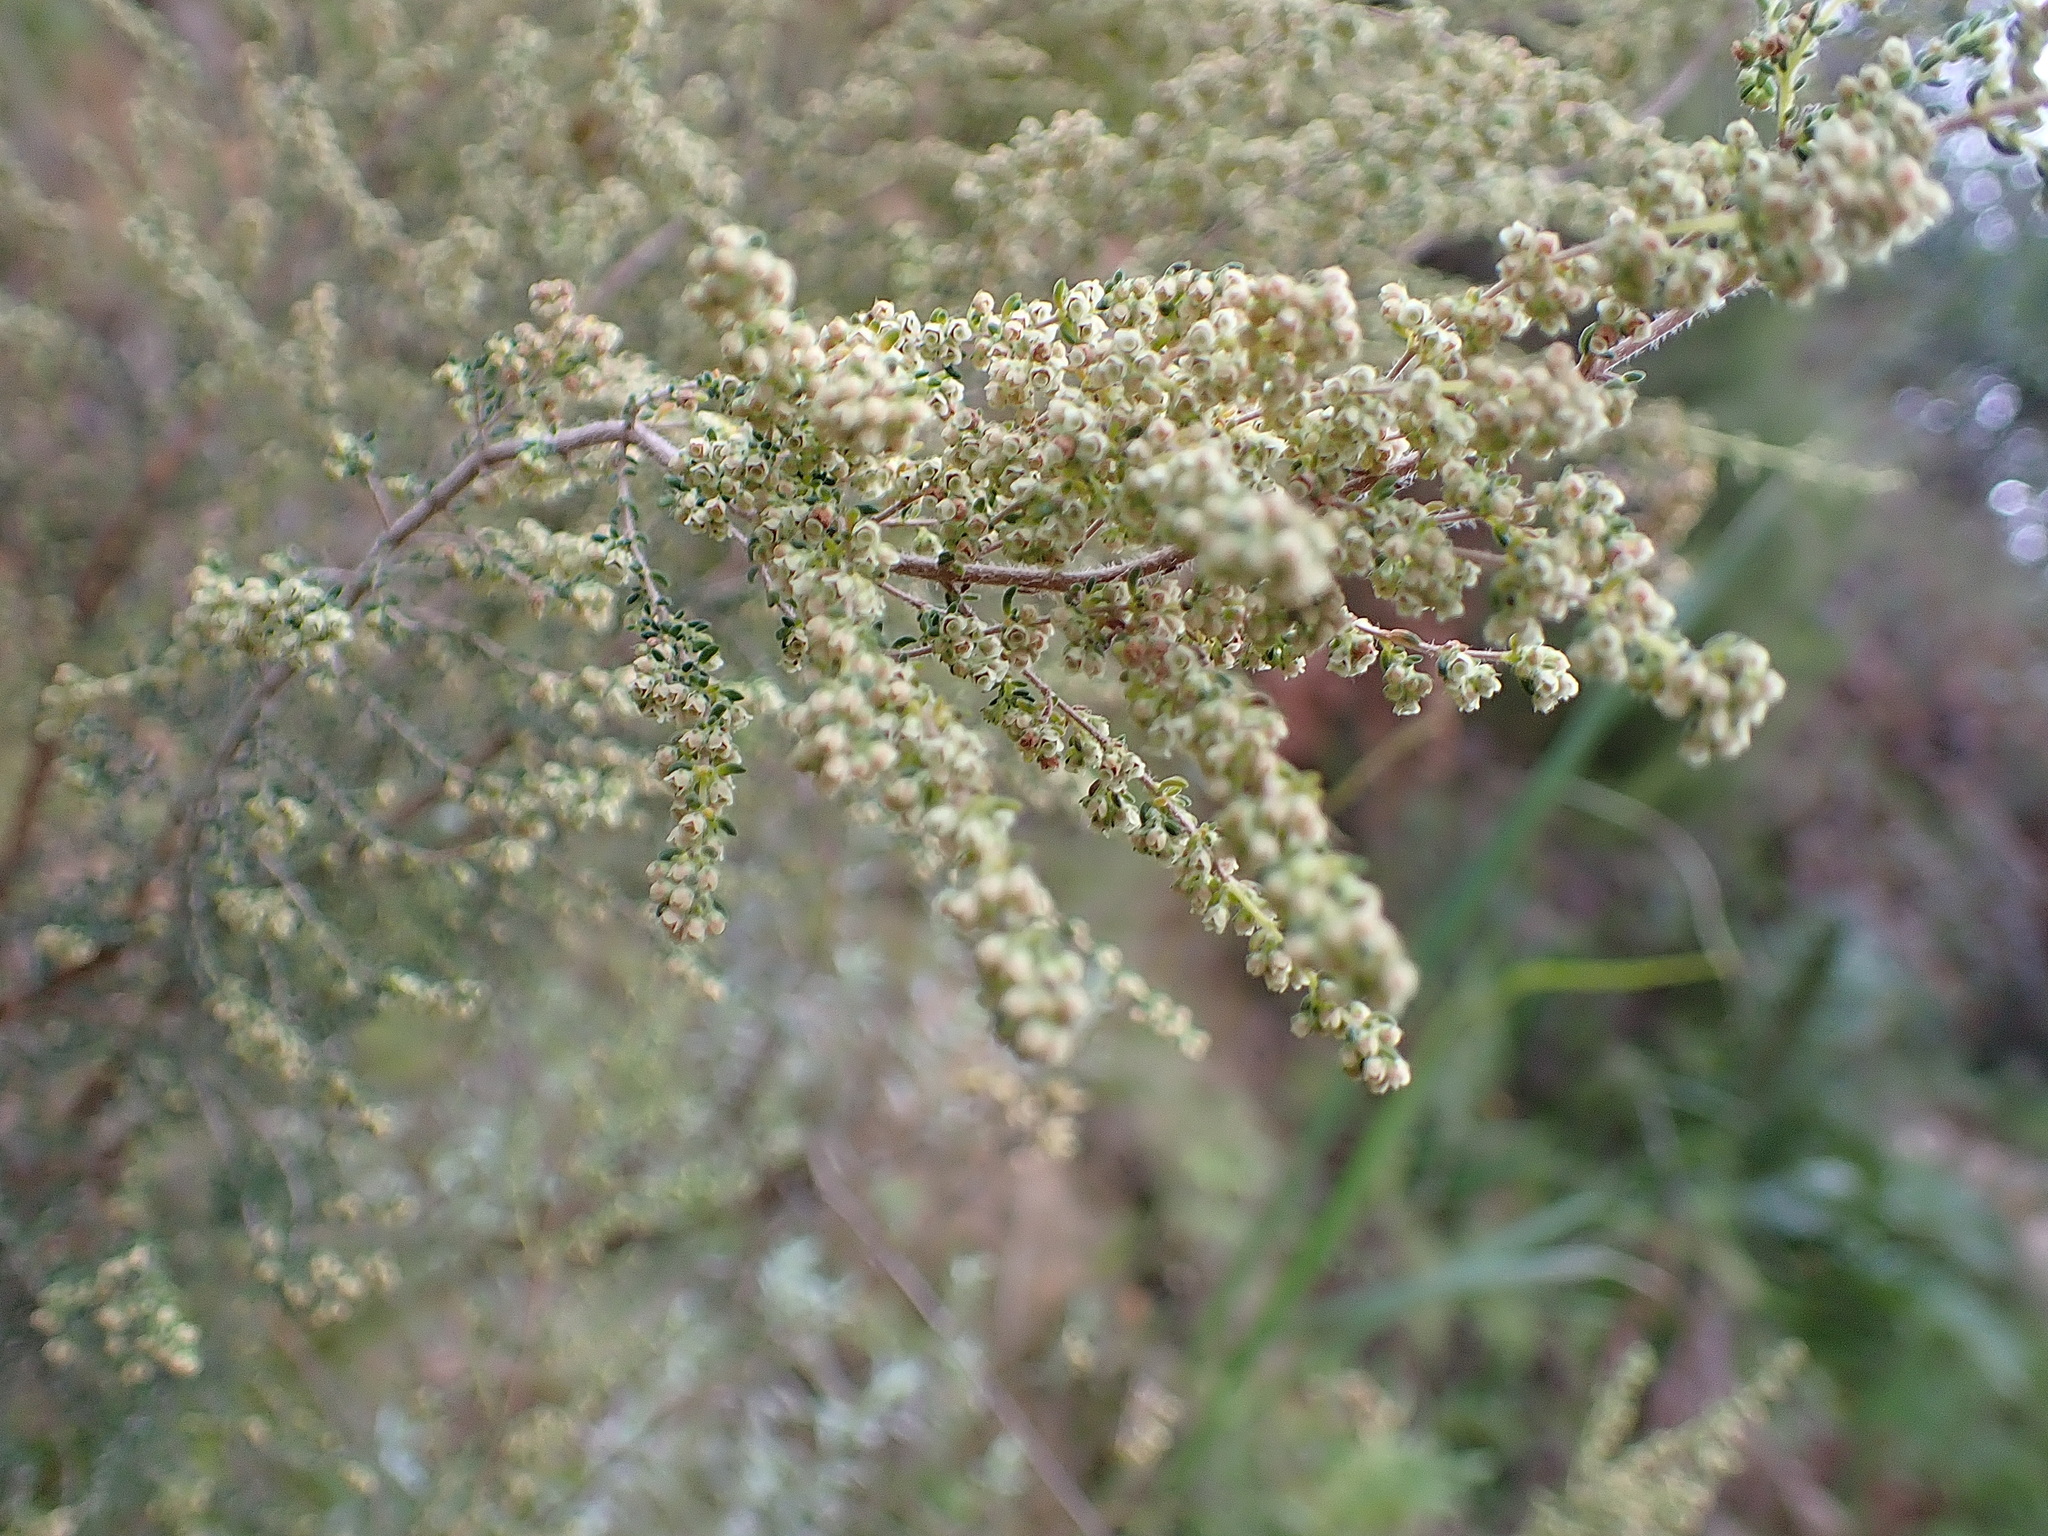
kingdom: Plantae
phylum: Tracheophyta
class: Magnoliopsida
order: Ericales
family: Ericaceae
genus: Erica
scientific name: Erica hispidula
